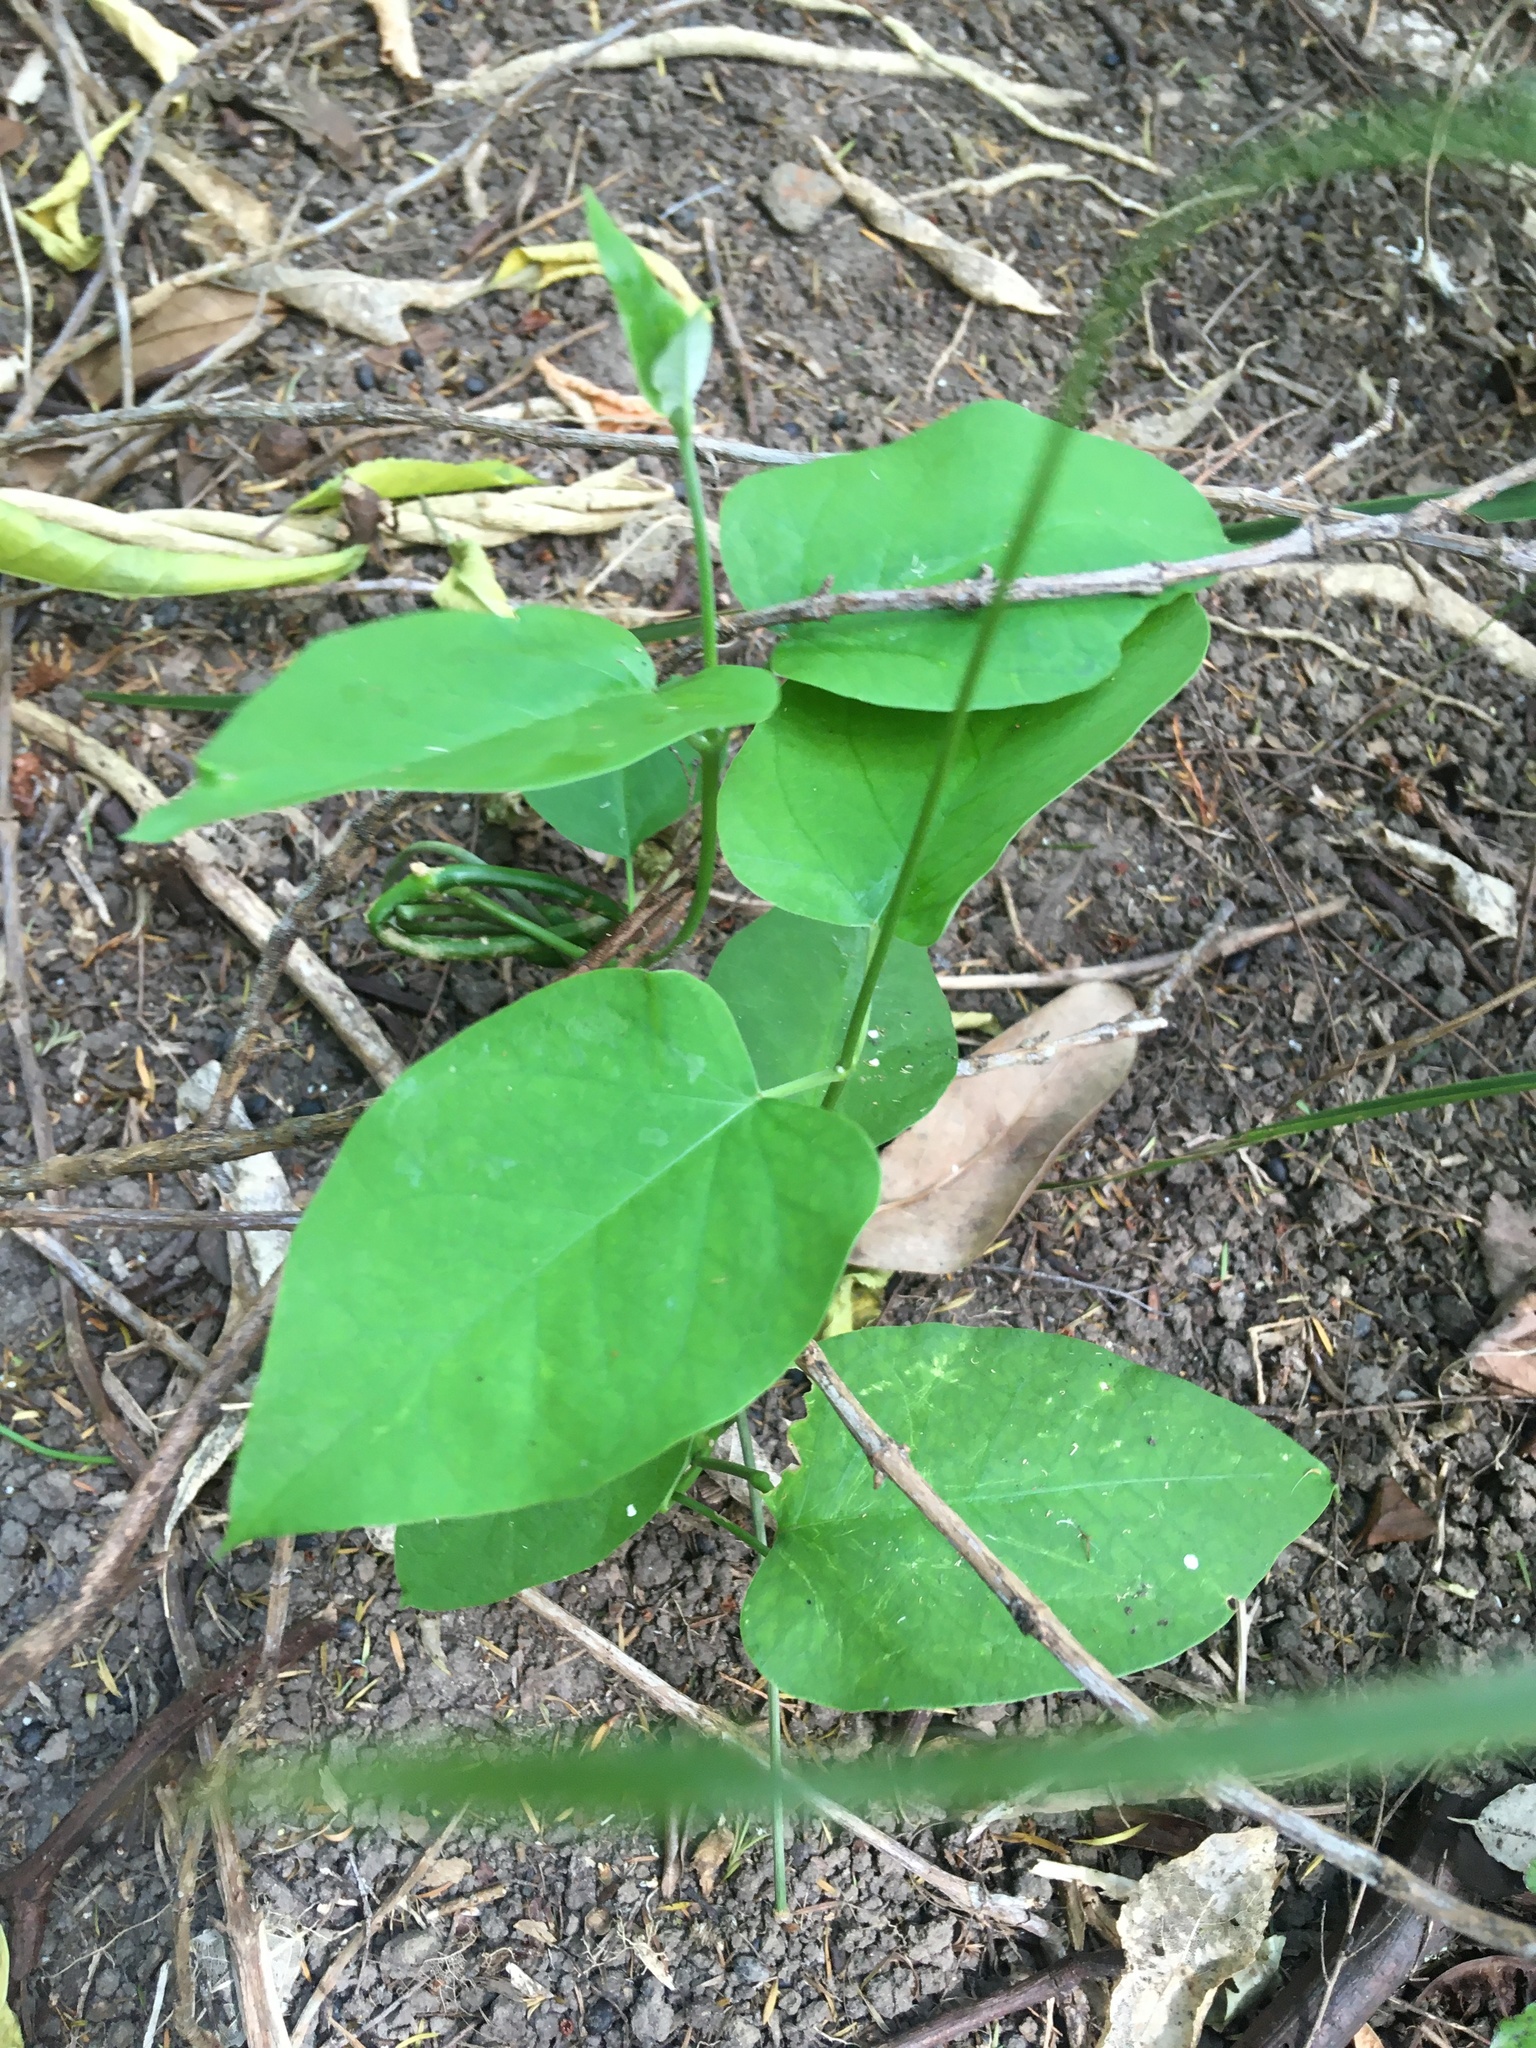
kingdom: Plantae
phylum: Tracheophyta
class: Magnoliopsida
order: Gentianales
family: Apocynaceae
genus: Araujia
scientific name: Araujia sericifera
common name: White bladderflower
